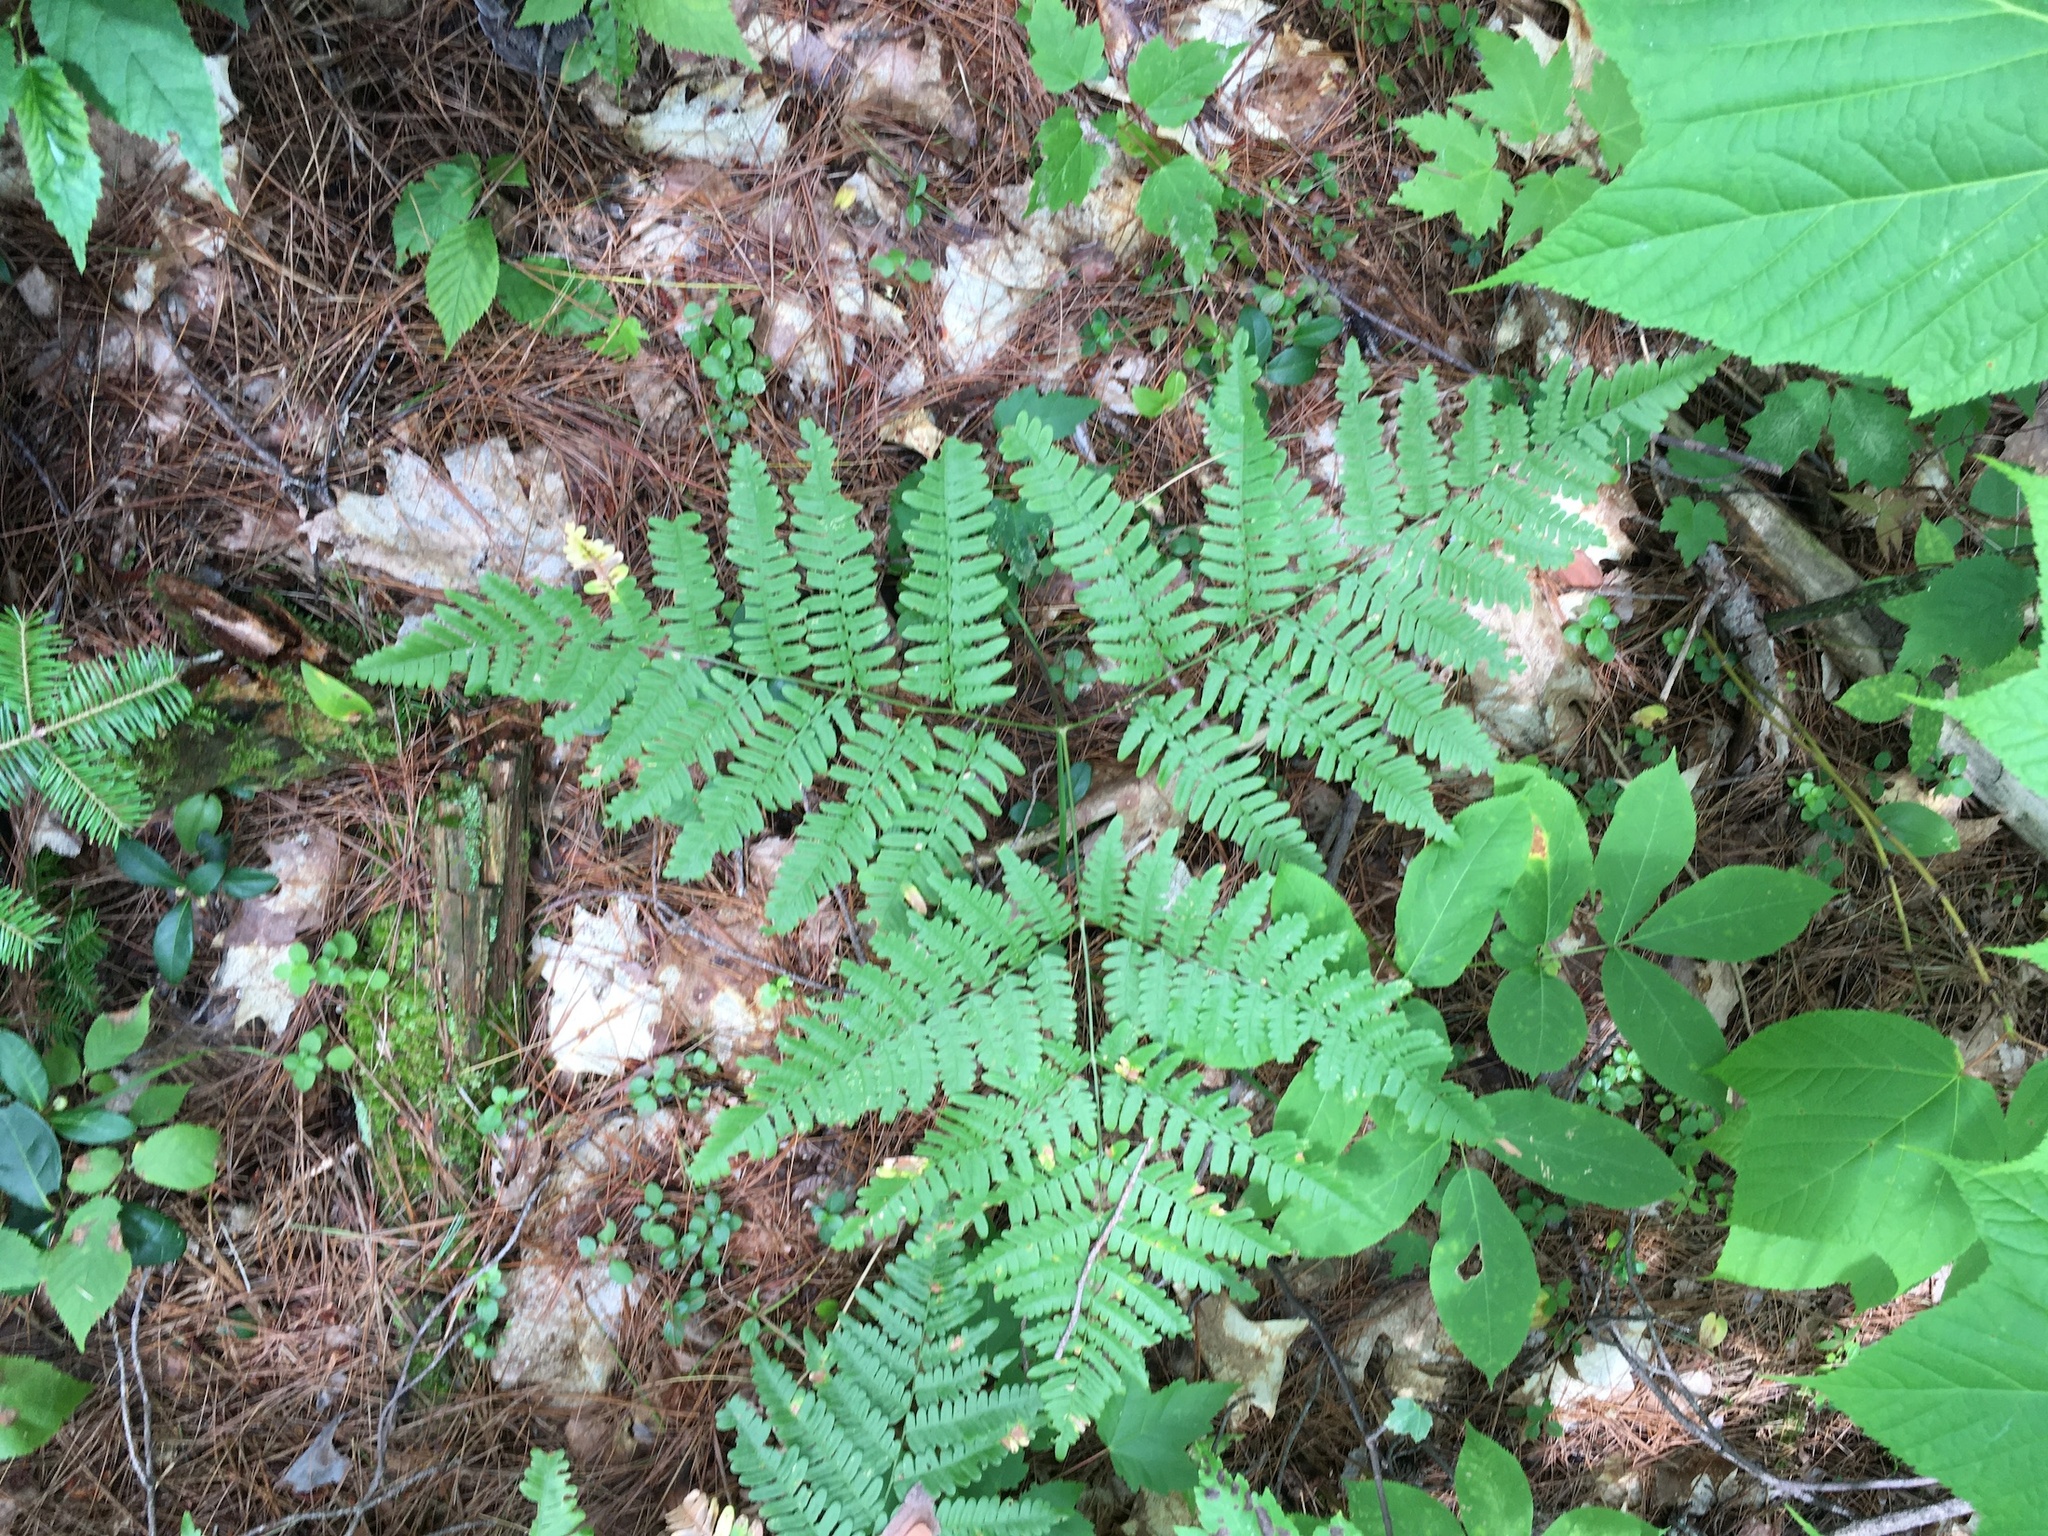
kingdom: Plantae
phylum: Tracheophyta
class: Polypodiopsida
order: Polypodiales
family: Dennstaedtiaceae
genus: Pteridium
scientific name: Pteridium aquilinum
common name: Bracken
